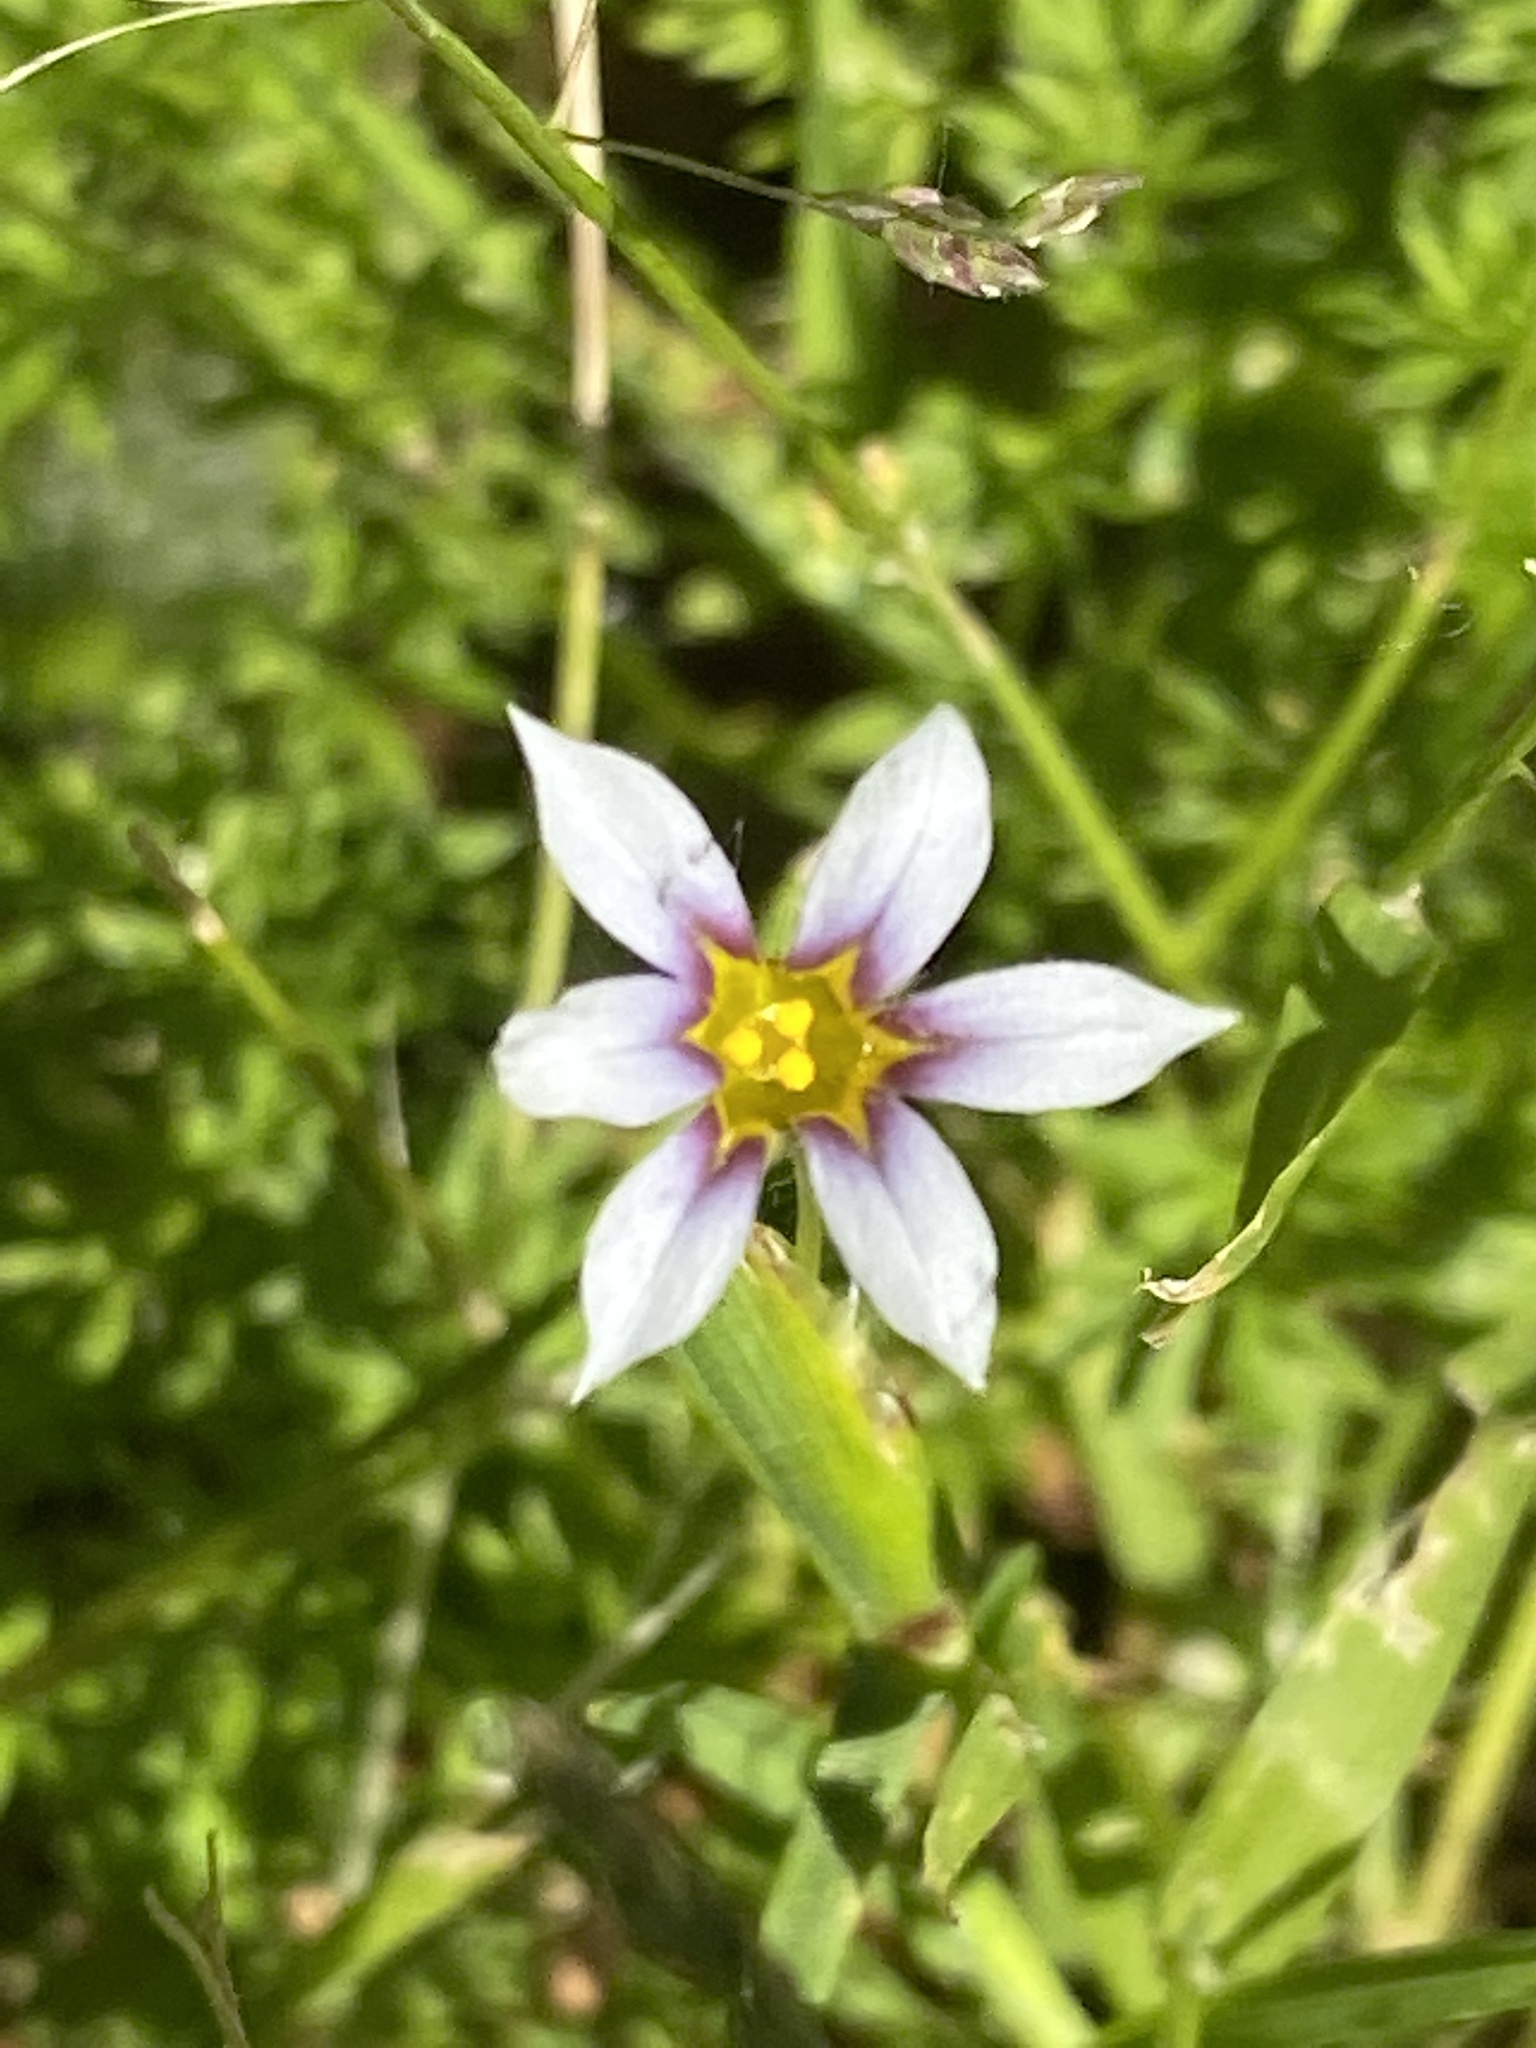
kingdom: Plantae
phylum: Tracheophyta
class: Liliopsida
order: Asparagales
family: Iridaceae
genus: Sisyrinchium
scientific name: Sisyrinchium micranthum
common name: Bermuda pigroot
